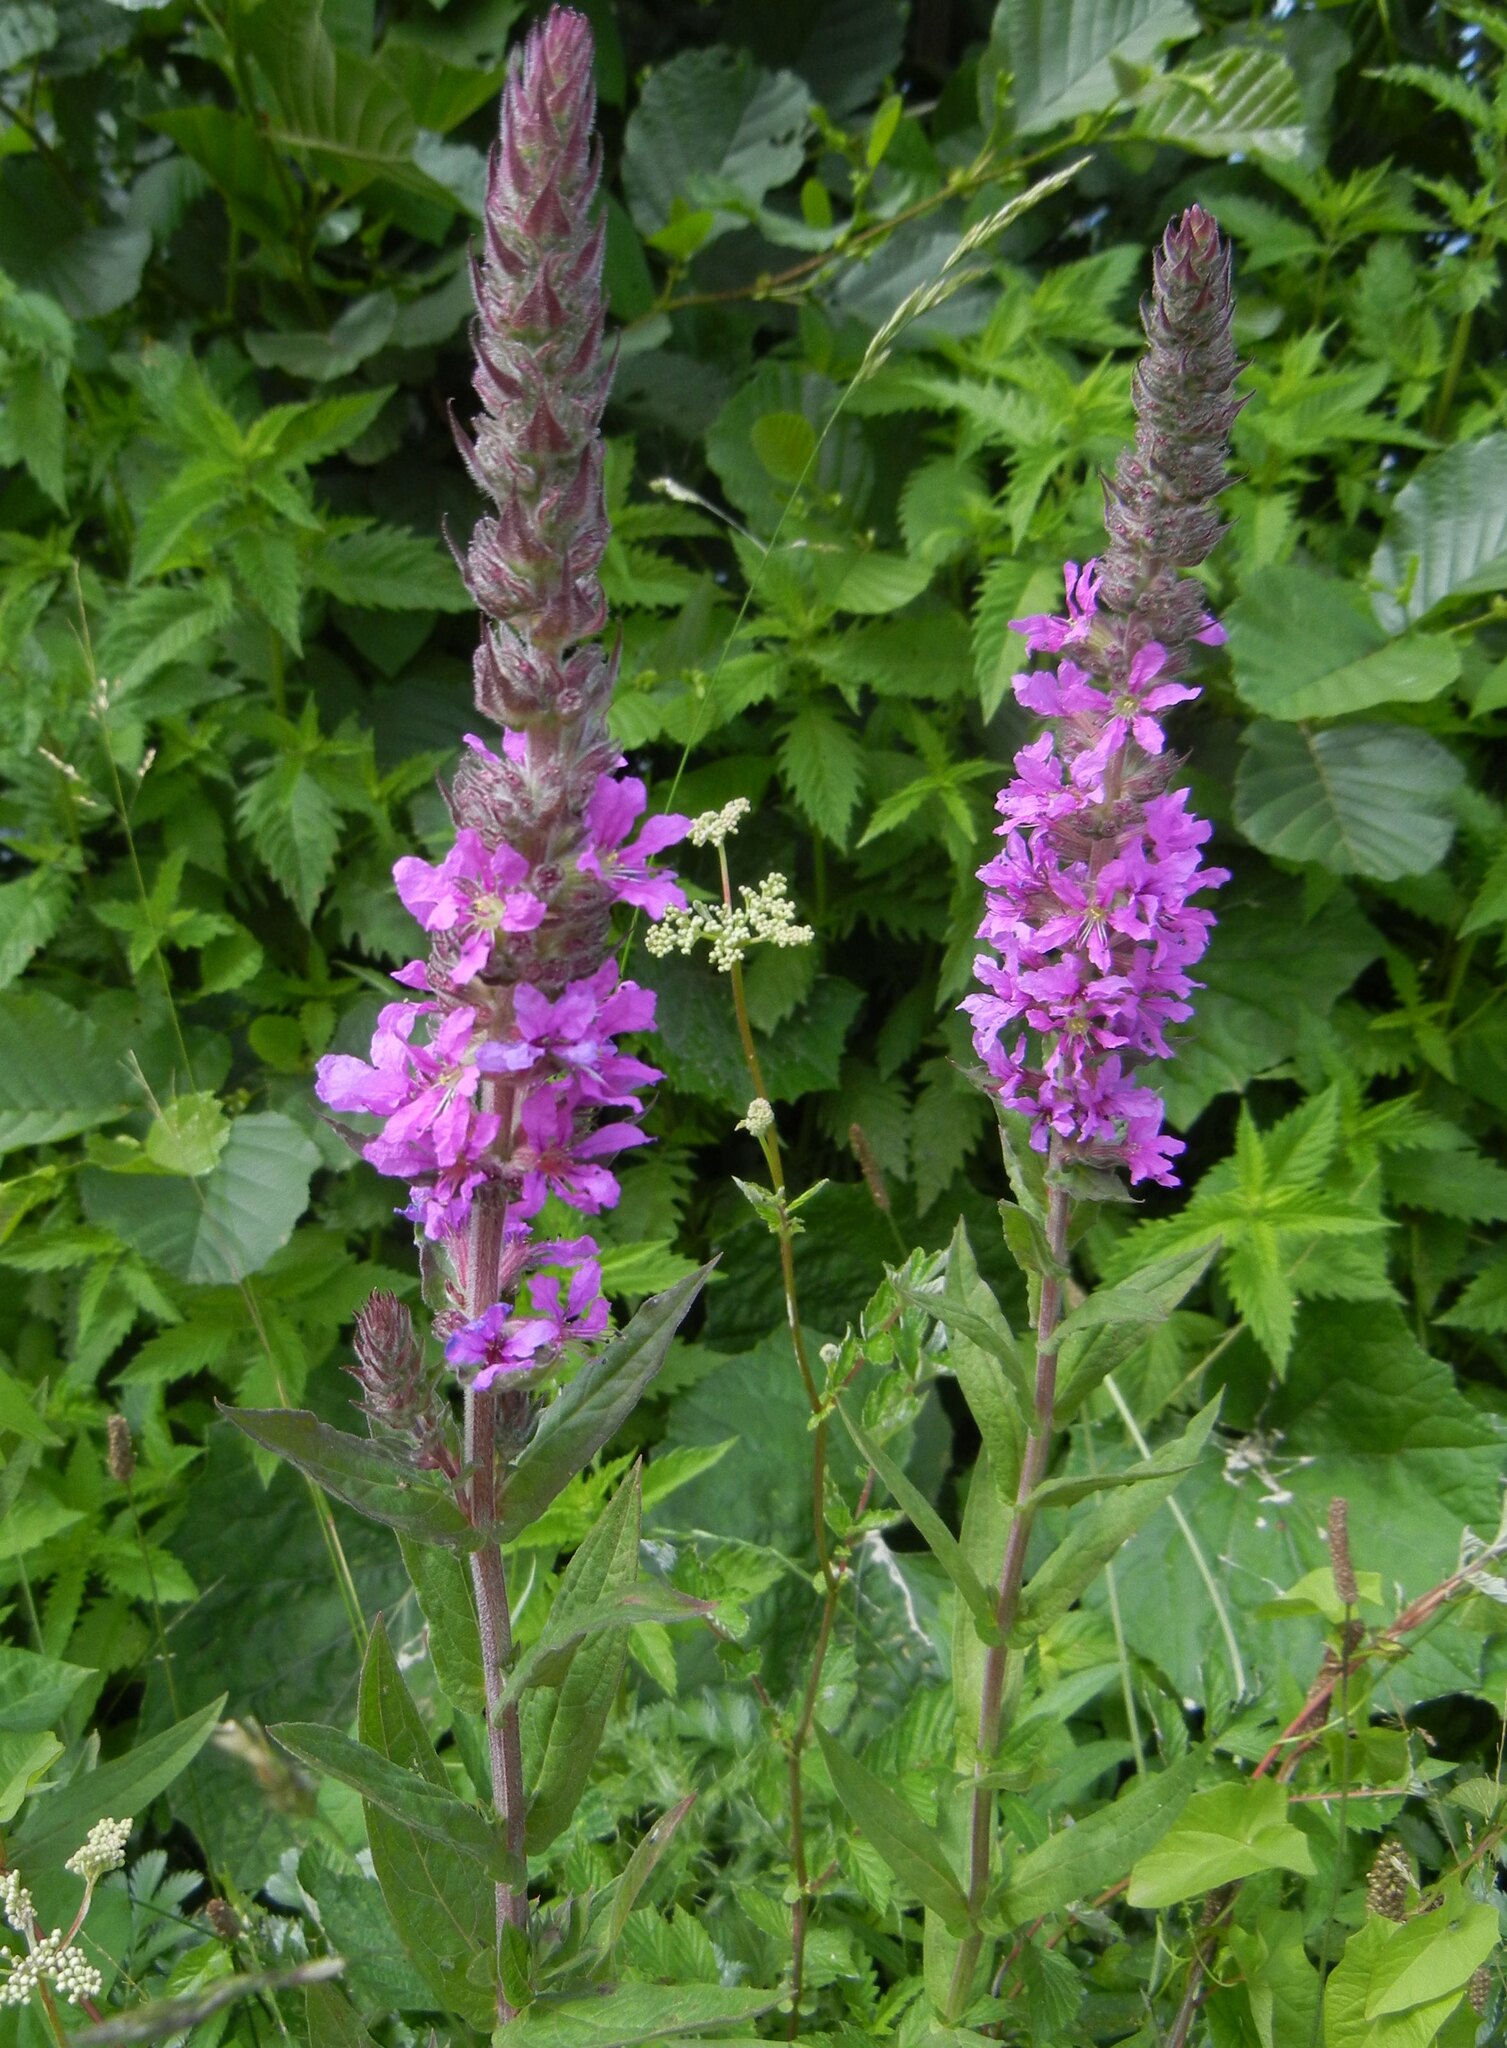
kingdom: Plantae
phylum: Tracheophyta
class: Magnoliopsida
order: Myrtales
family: Lythraceae
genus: Lythrum
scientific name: Lythrum salicaria
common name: Purple loosestrife
